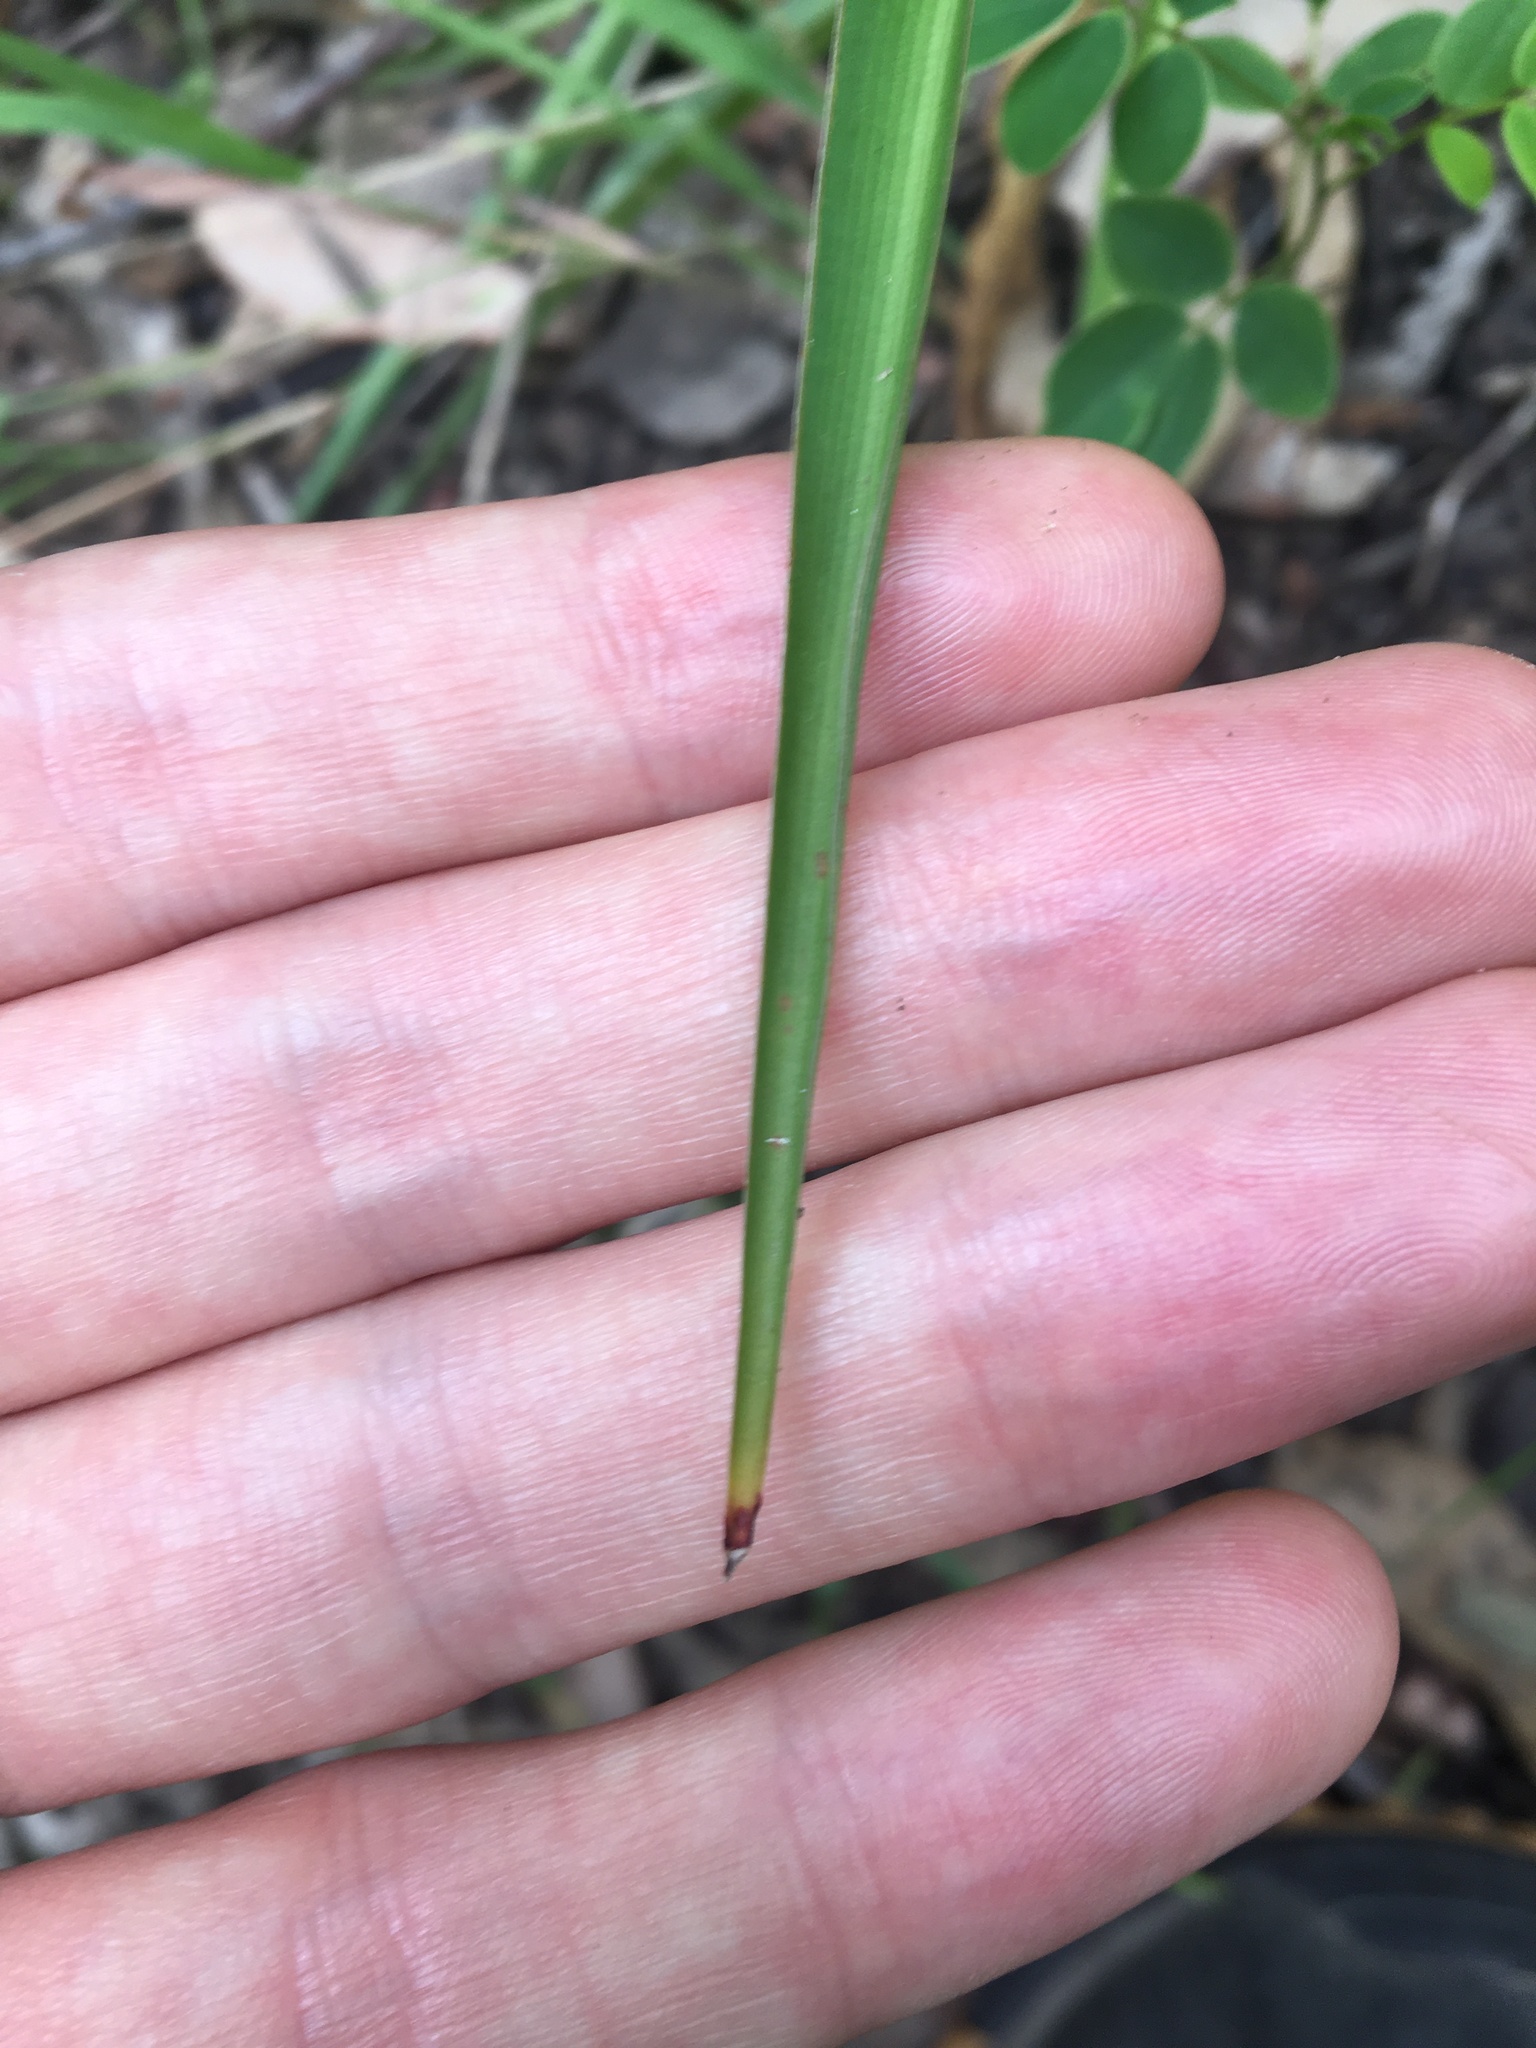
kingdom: Plantae
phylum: Tracheophyta
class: Liliopsida
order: Asparagales
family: Asparagaceae
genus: Chlorophytum
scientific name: Chlorophytum comosum
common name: Spider plant
